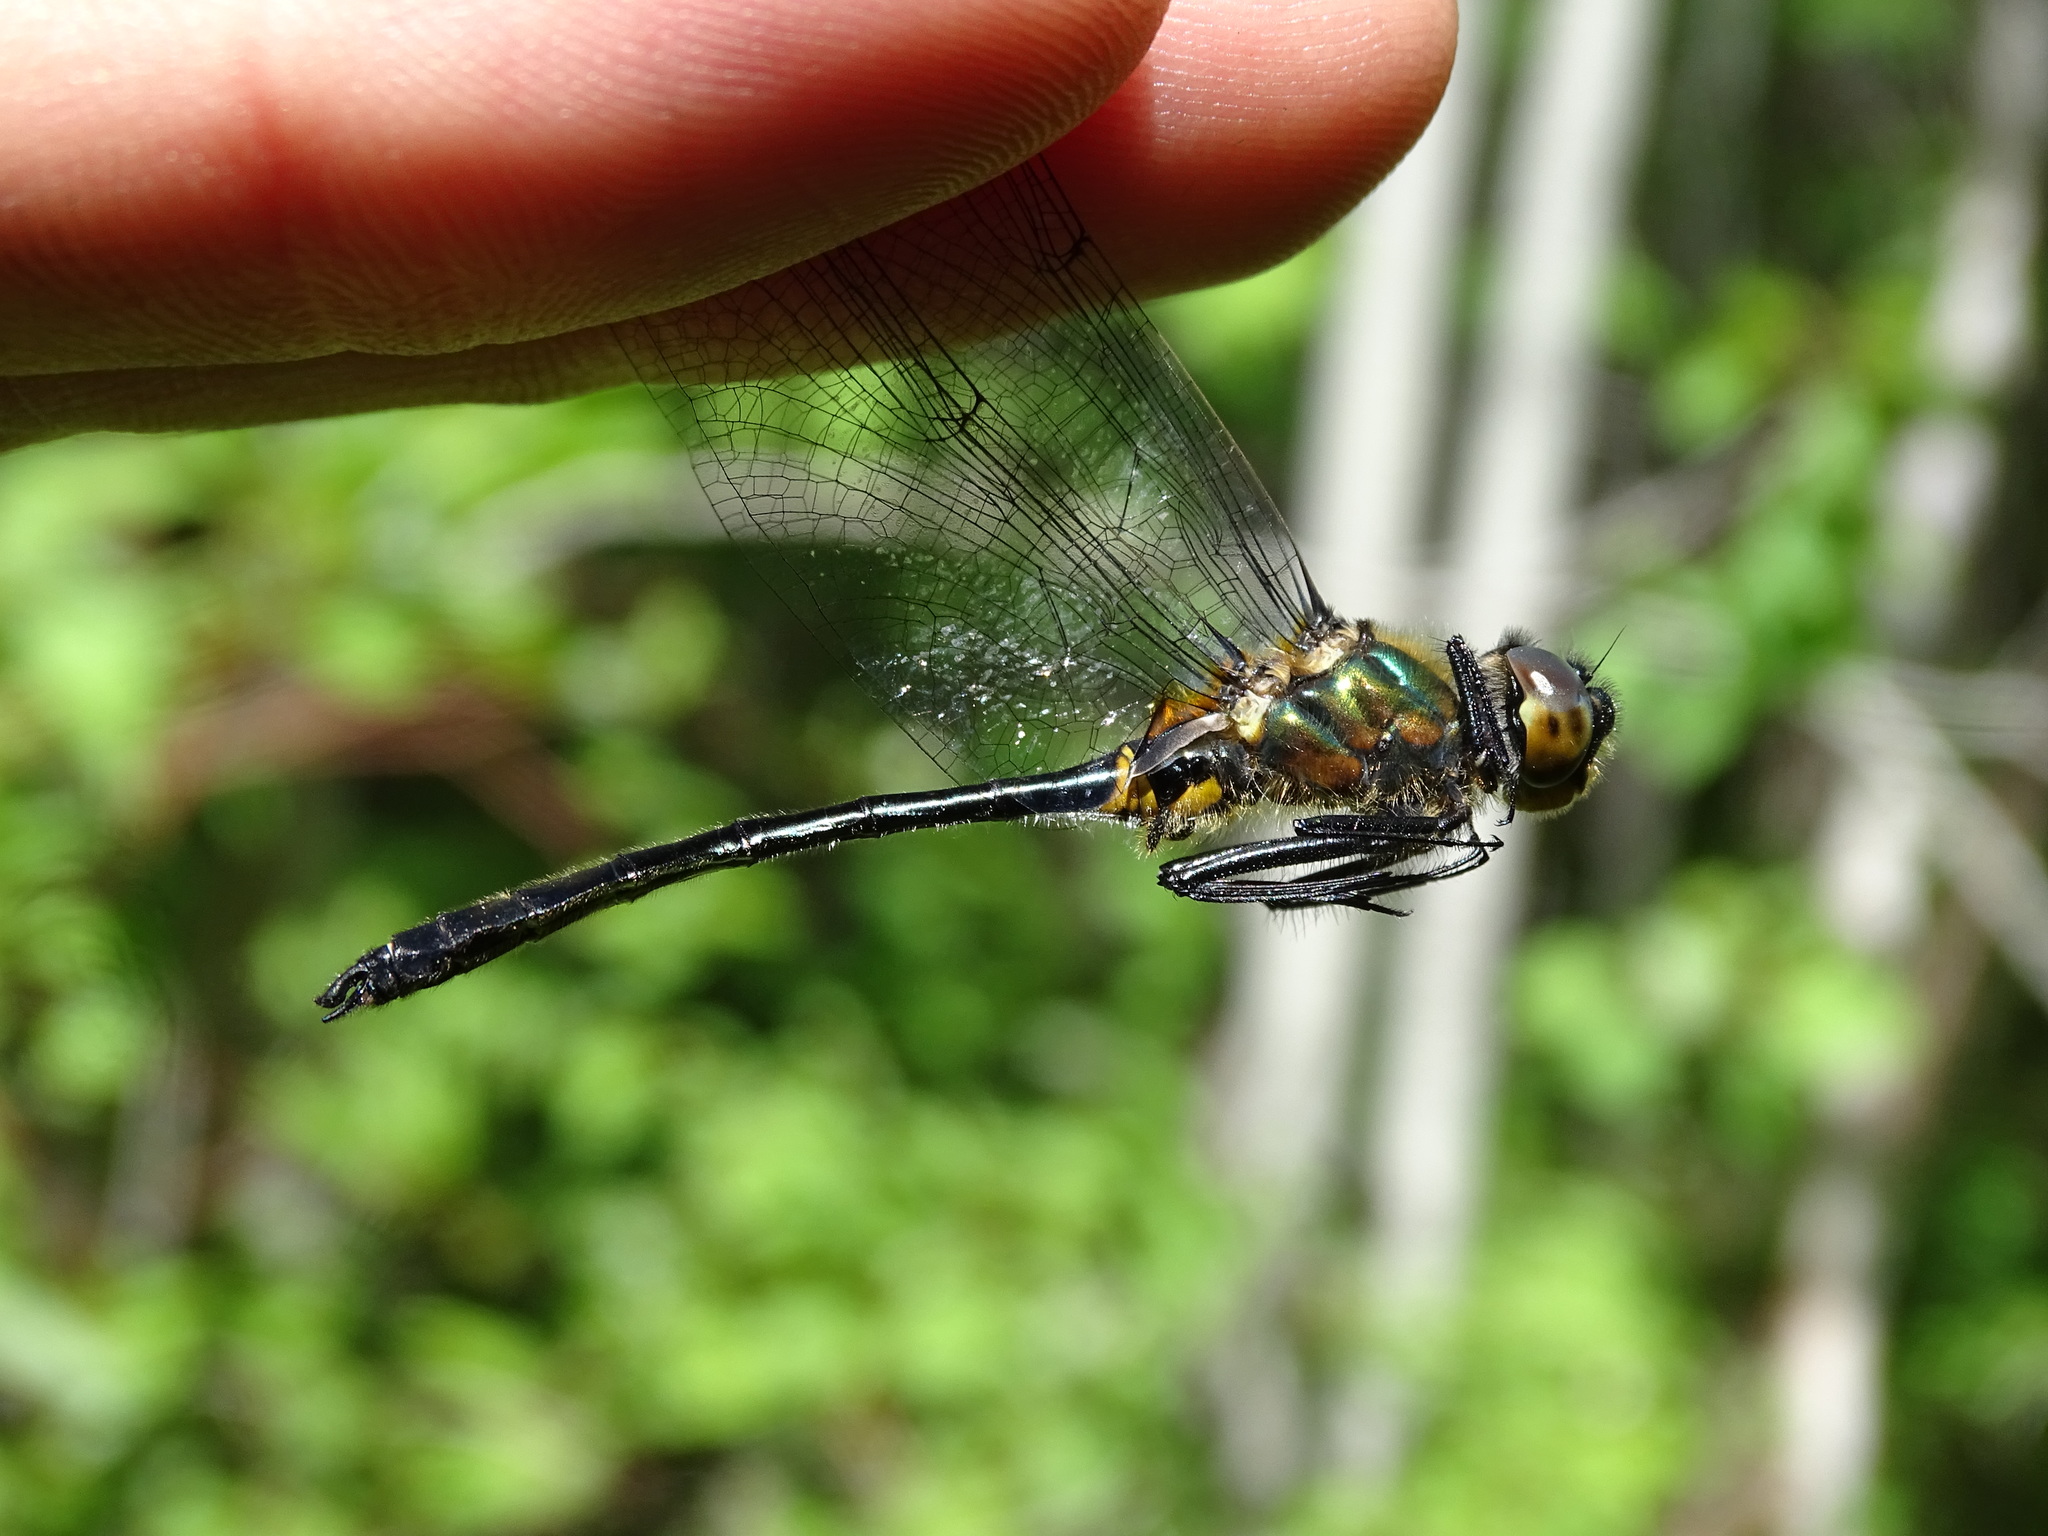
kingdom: Animalia
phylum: Arthropoda
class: Insecta
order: Odonata
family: Corduliidae
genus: Dorocordulia
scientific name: Dorocordulia libera
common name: Racket-tailed emerald
